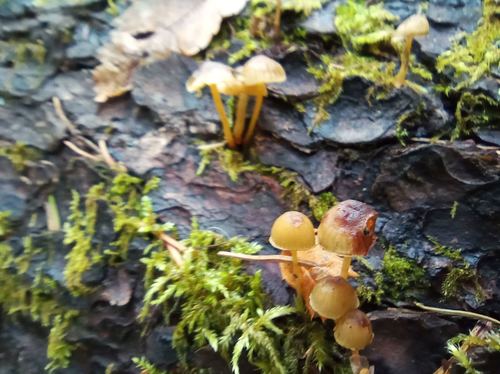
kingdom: Fungi
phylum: Basidiomycota
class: Agaricomycetes
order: Agaricales
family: Mycenaceae
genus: Mycena
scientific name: Mycena
